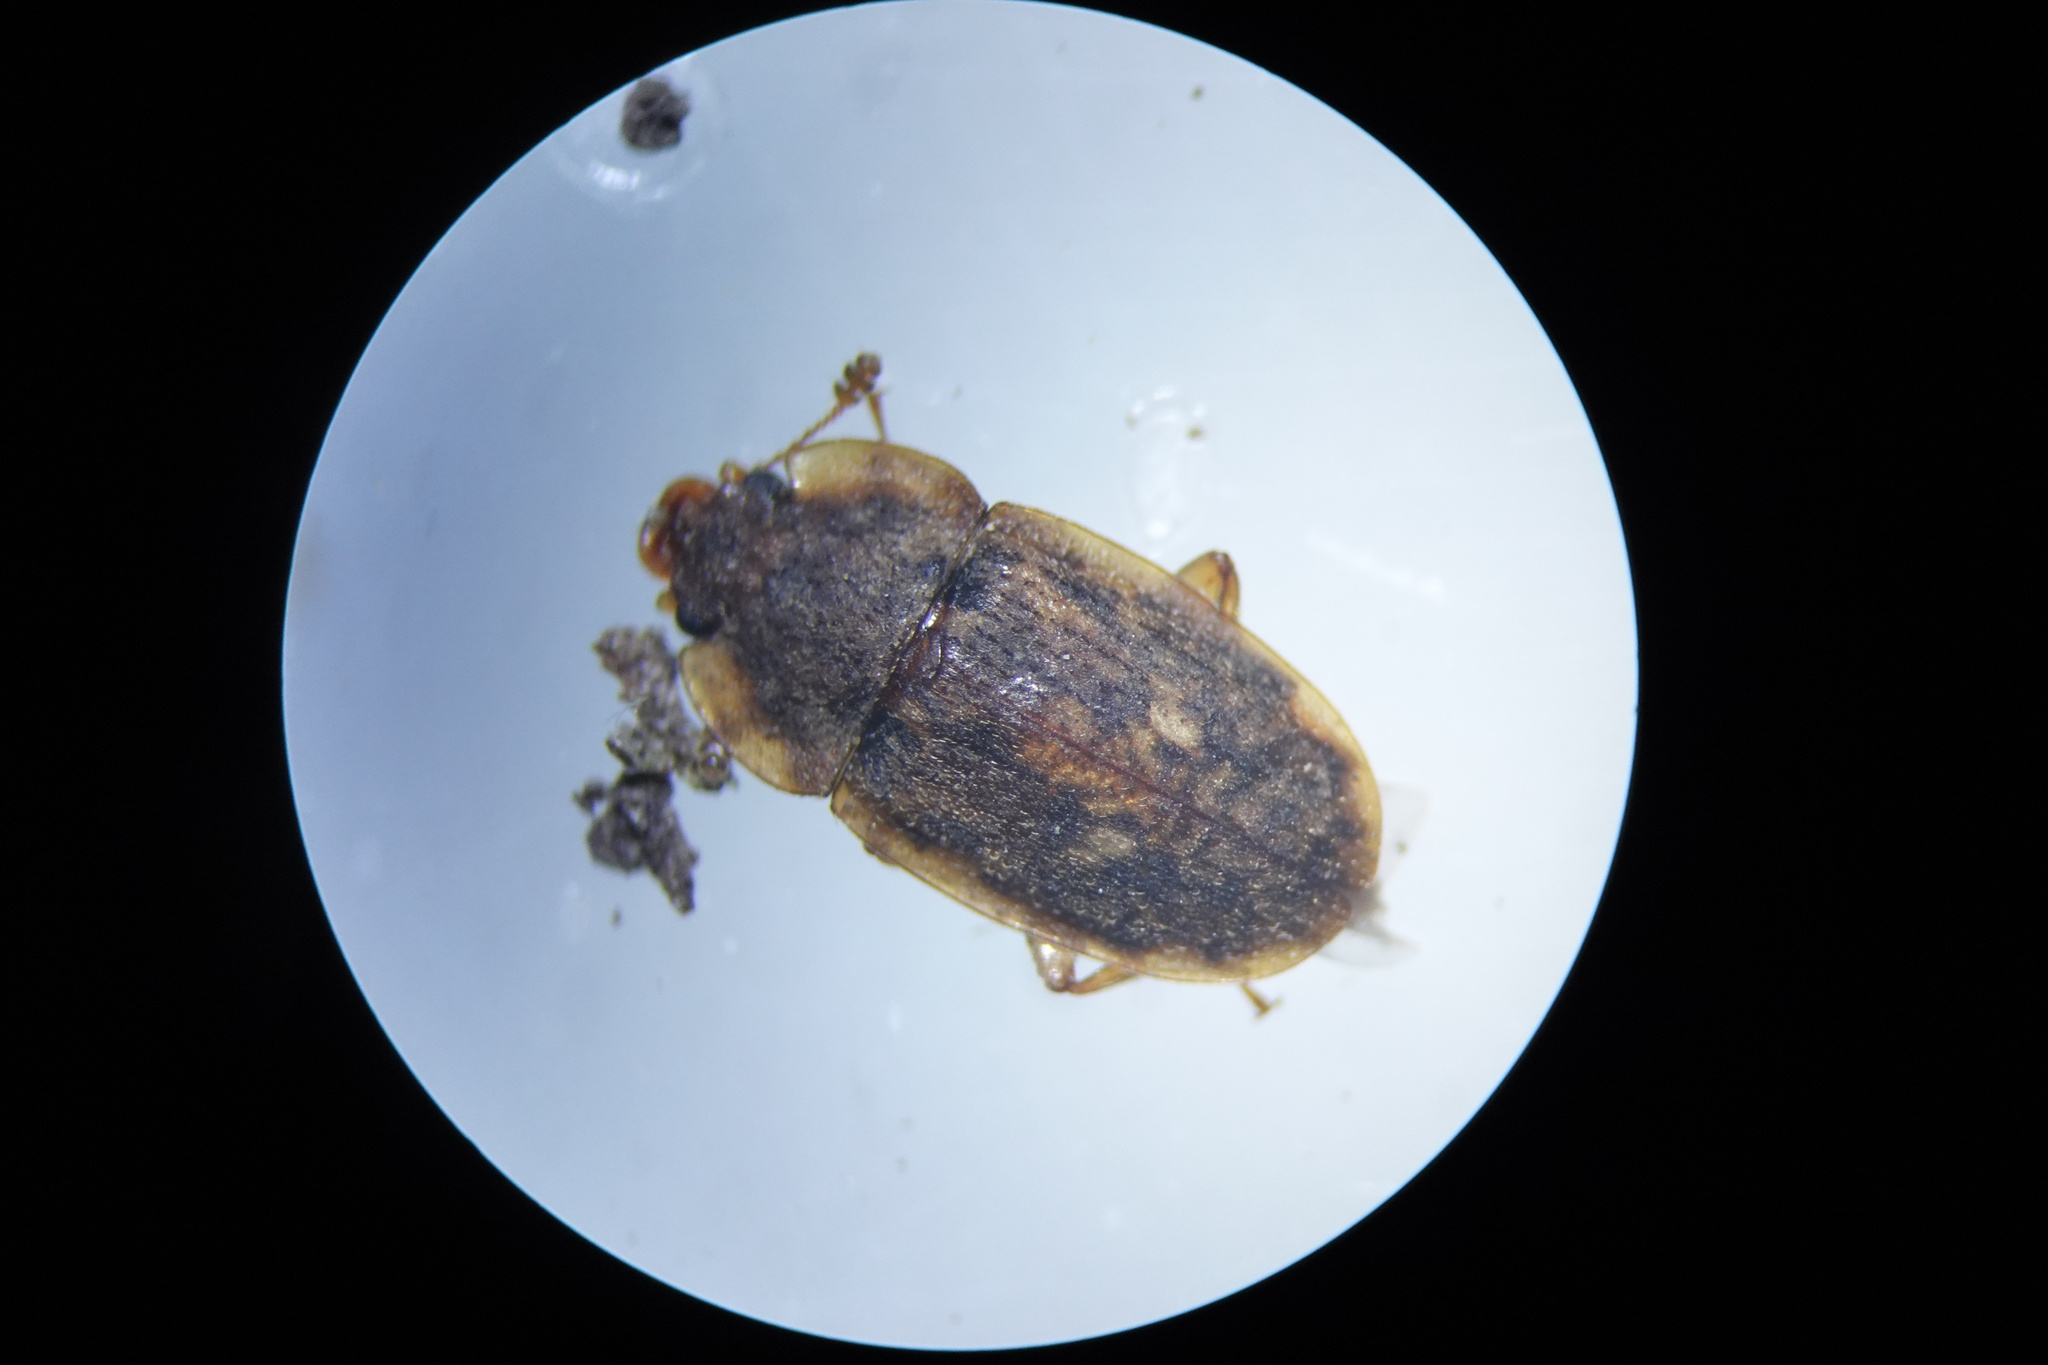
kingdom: Animalia
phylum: Arthropoda
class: Insecta
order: Coleoptera
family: Nitidulidae
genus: Soronia
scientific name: Soronia
